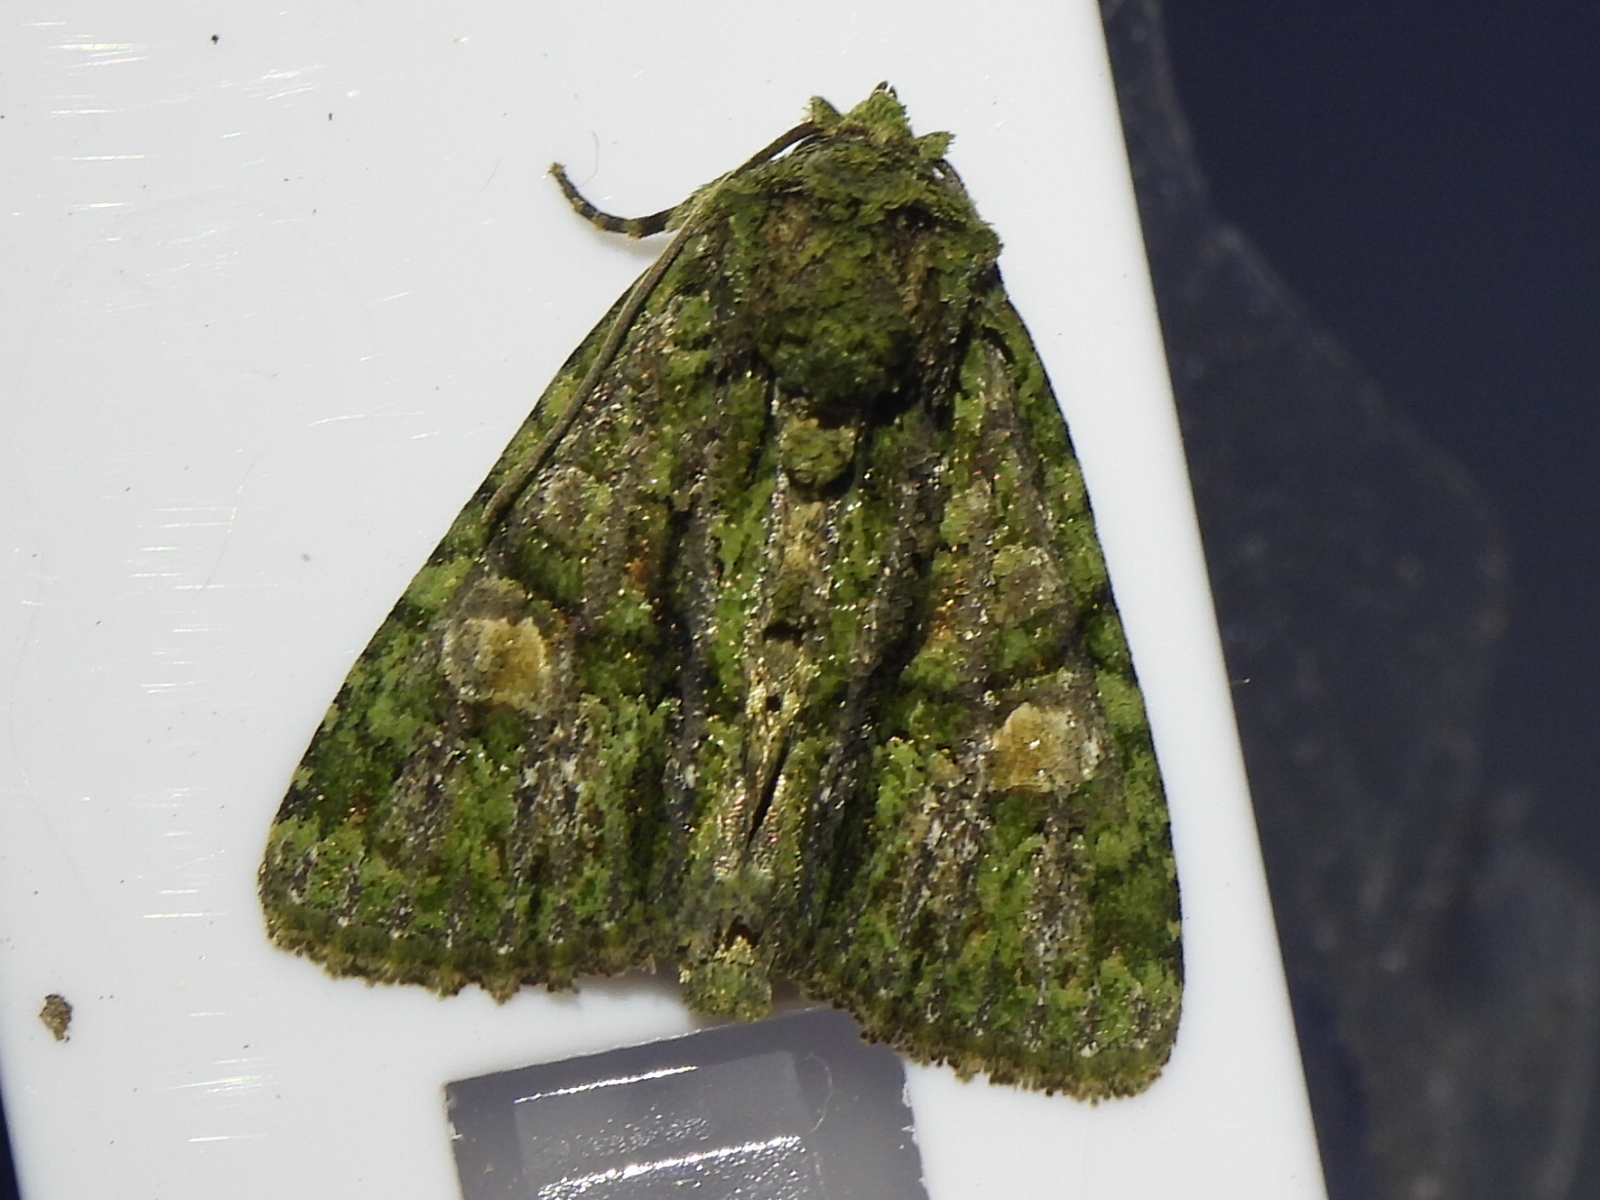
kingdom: Animalia
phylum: Arthropoda
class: Insecta
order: Lepidoptera
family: Noctuidae
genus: Phosphila
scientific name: Phosphila miselioides
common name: Spotted phosphila moth
